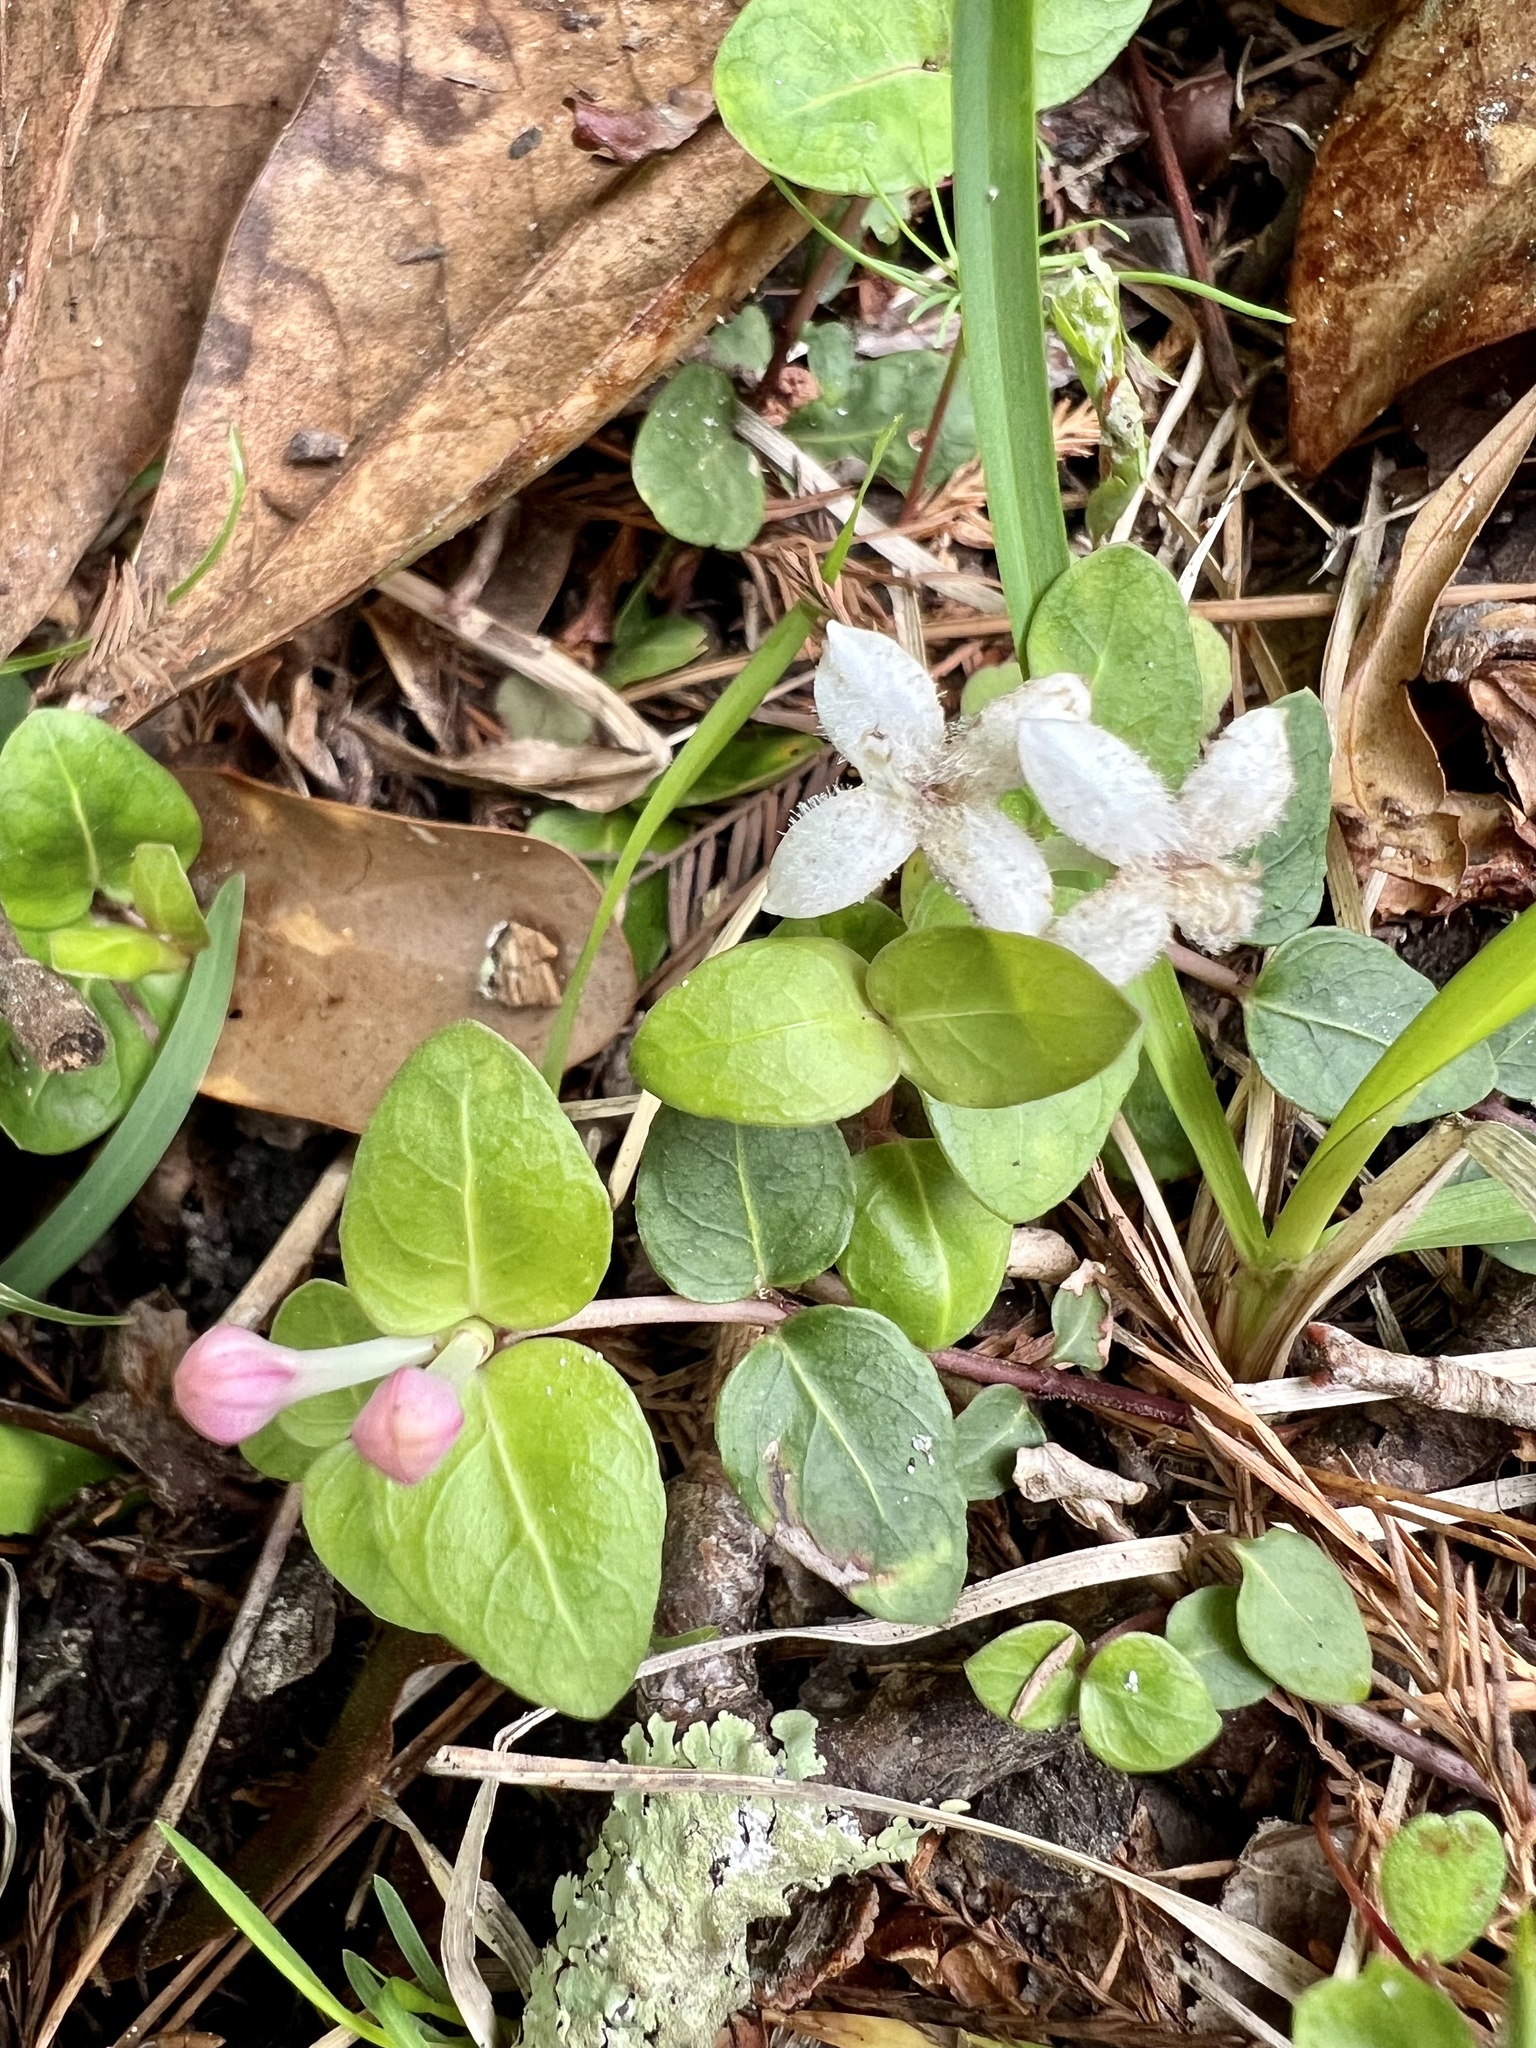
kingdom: Plantae
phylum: Tracheophyta
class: Magnoliopsida
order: Gentianales
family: Rubiaceae
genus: Mitchella
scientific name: Mitchella repens
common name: Partridge-berry
